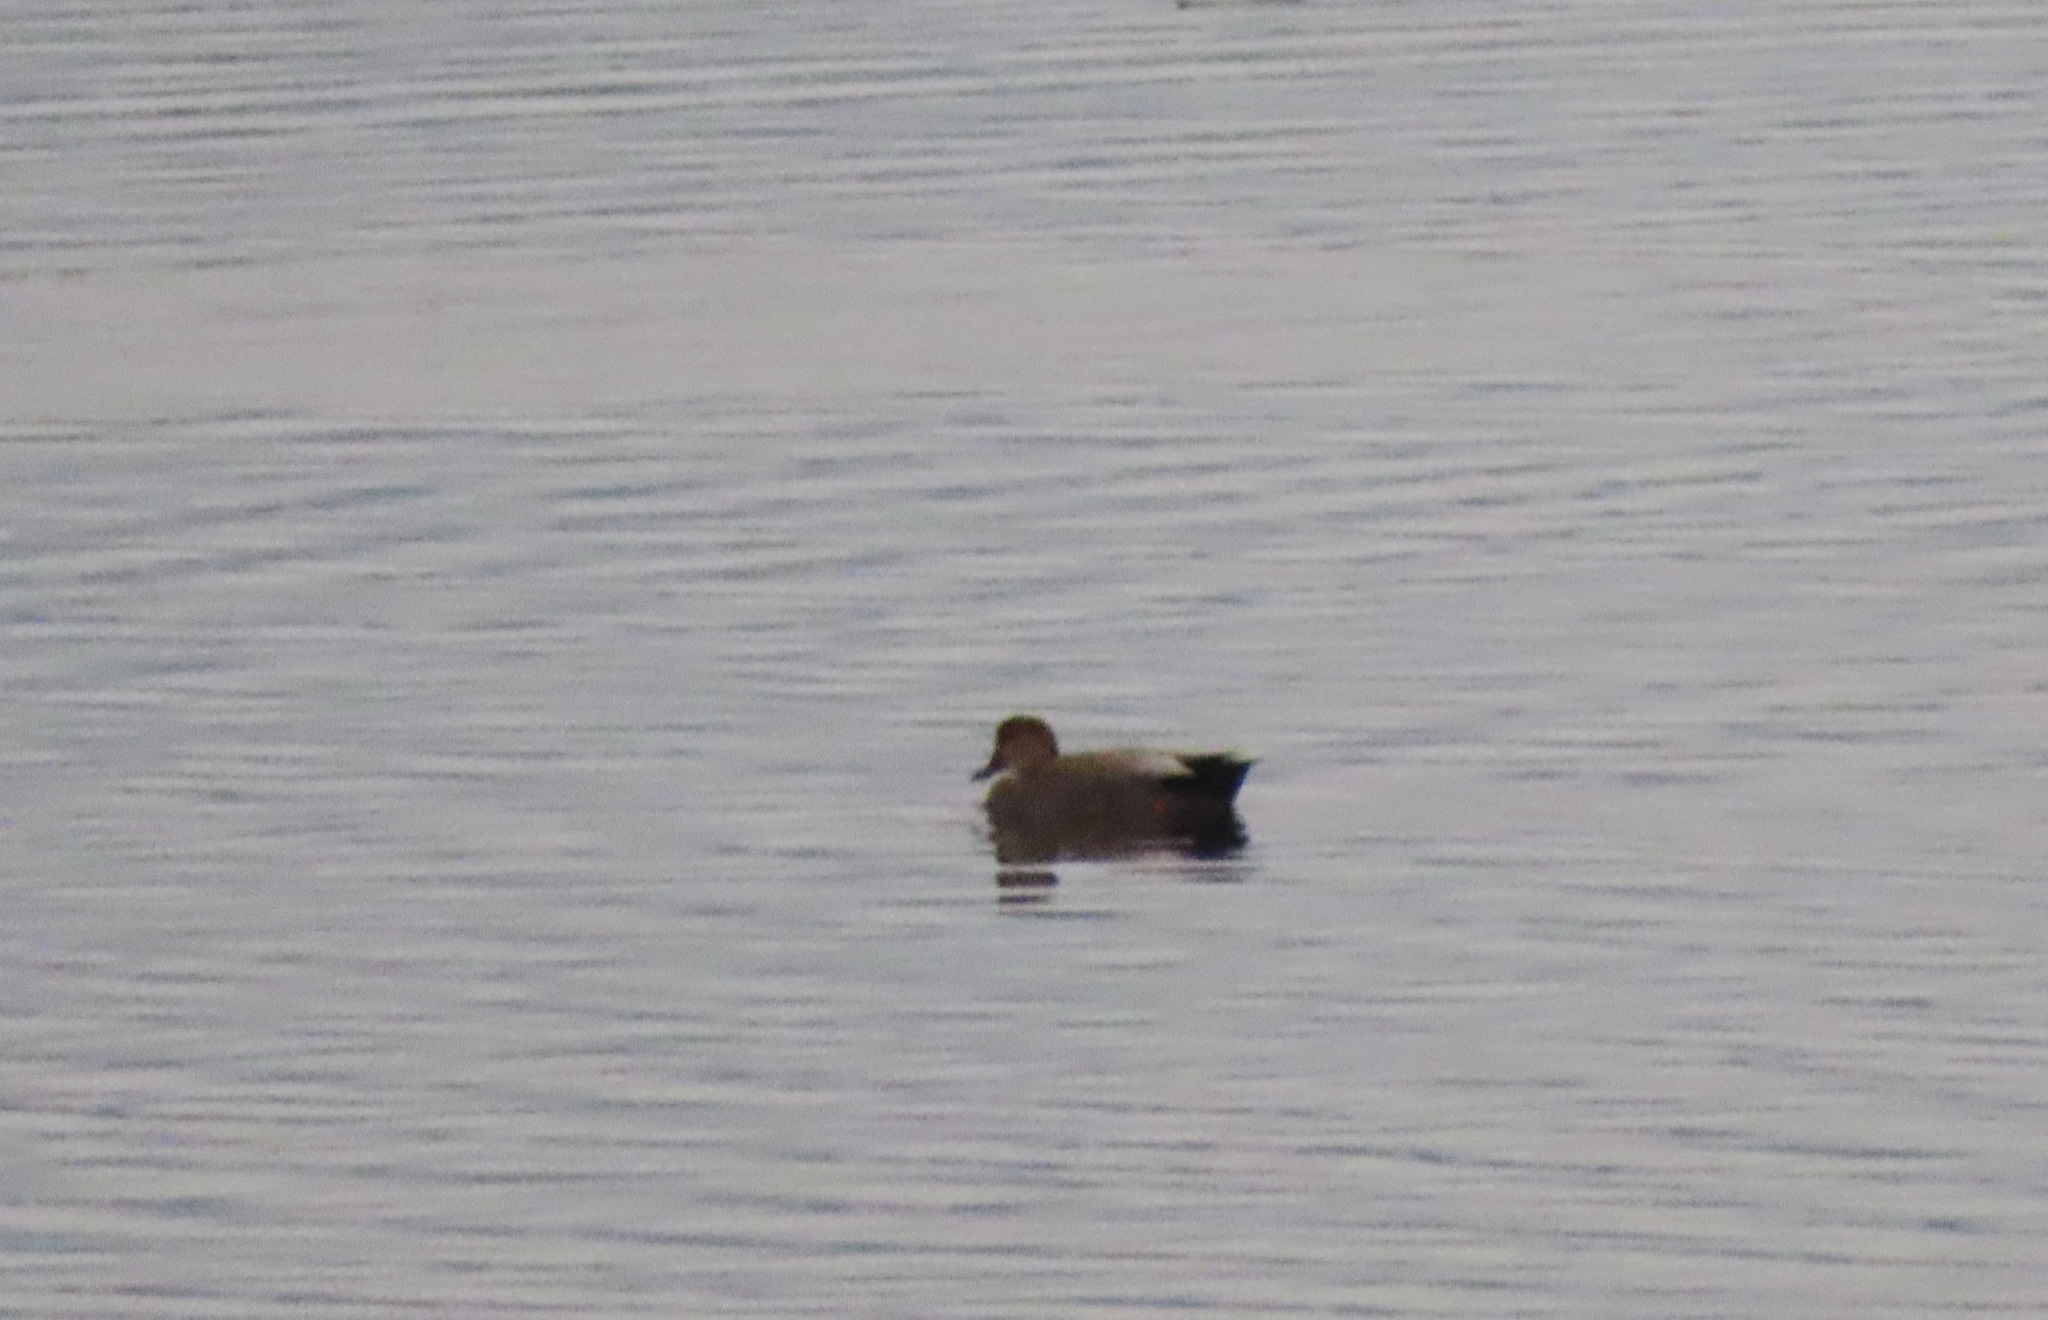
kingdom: Animalia
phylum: Chordata
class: Aves
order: Anseriformes
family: Anatidae
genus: Mareca
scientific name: Mareca strepera
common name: Gadwall
